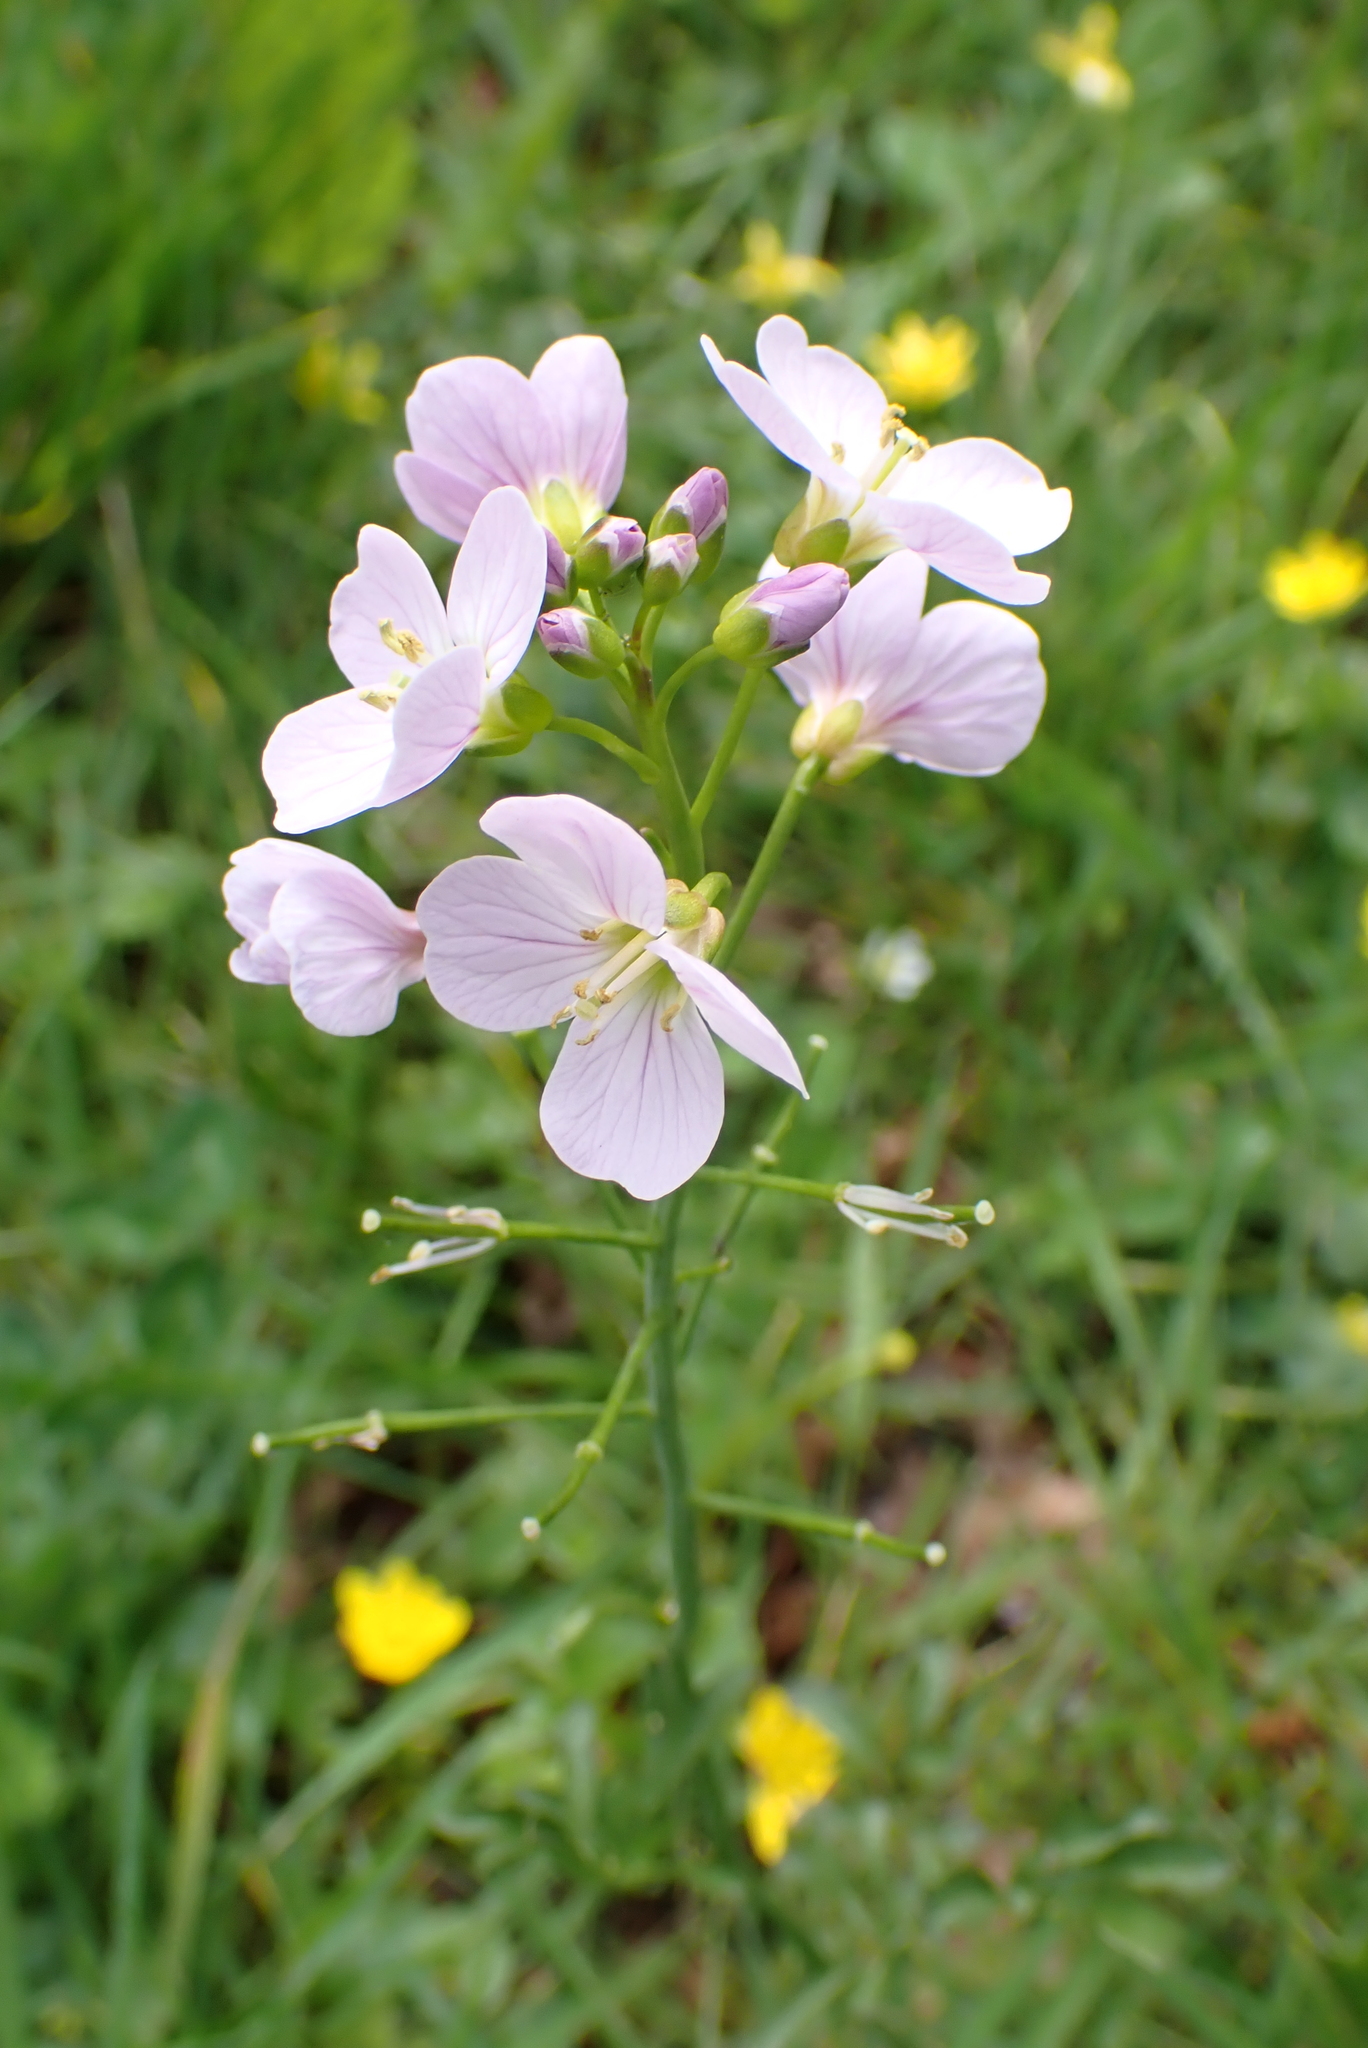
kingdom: Plantae
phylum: Tracheophyta
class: Magnoliopsida
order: Brassicales
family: Brassicaceae
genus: Cardamine
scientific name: Cardamine pratensis
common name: Cuckoo flower
